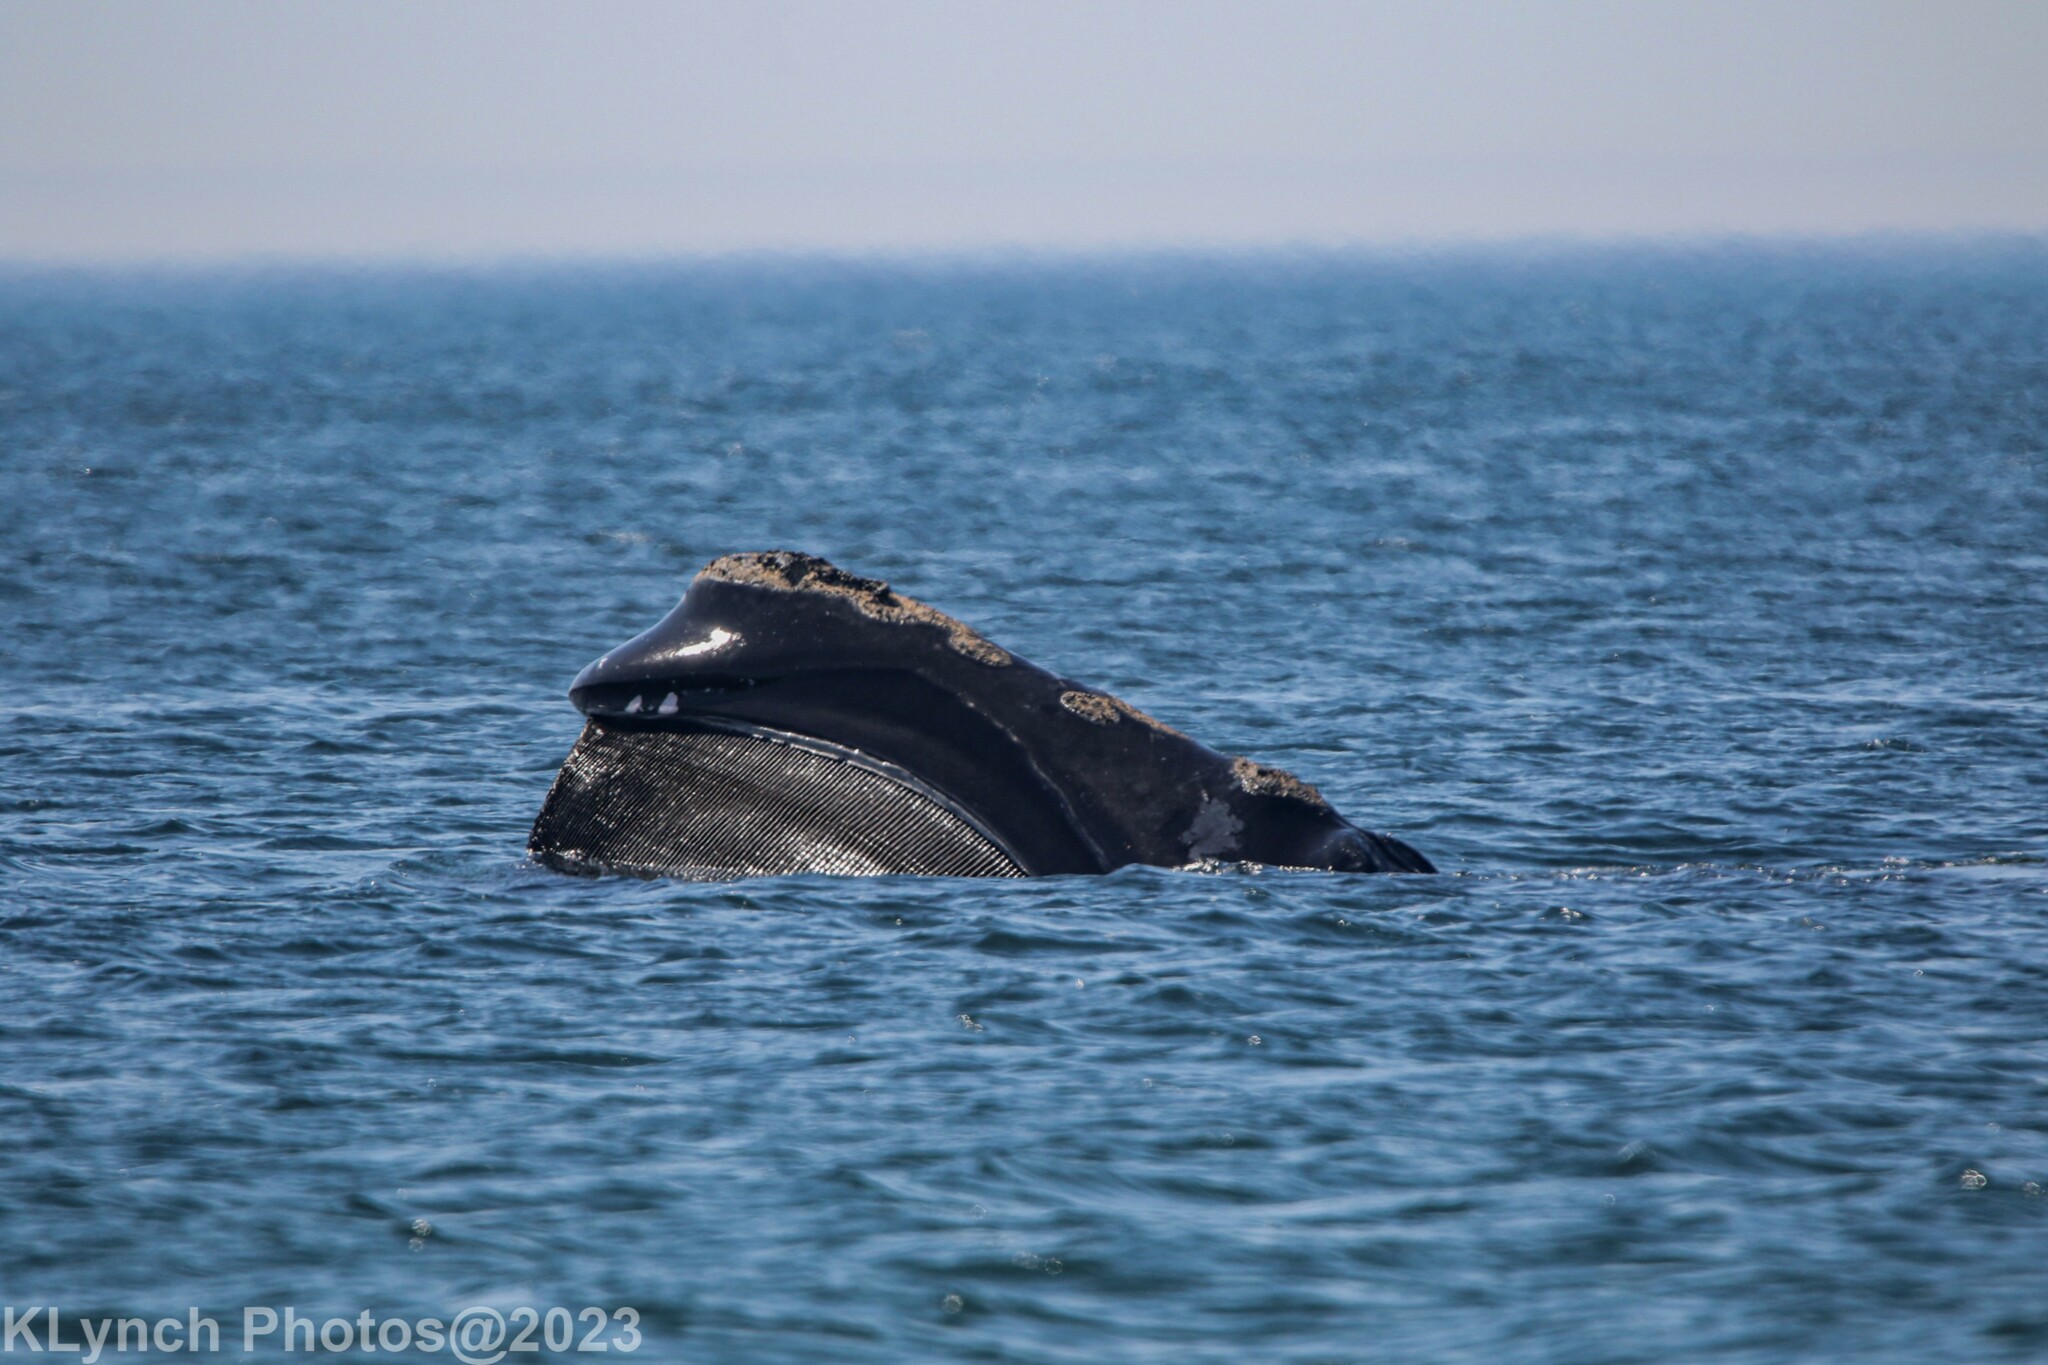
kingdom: Animalia
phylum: Chordata
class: Mammalia
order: Cetacea
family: Balaenidae
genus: Eubalaena
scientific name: Eubalaena glacialis
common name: North atlantic right whale
